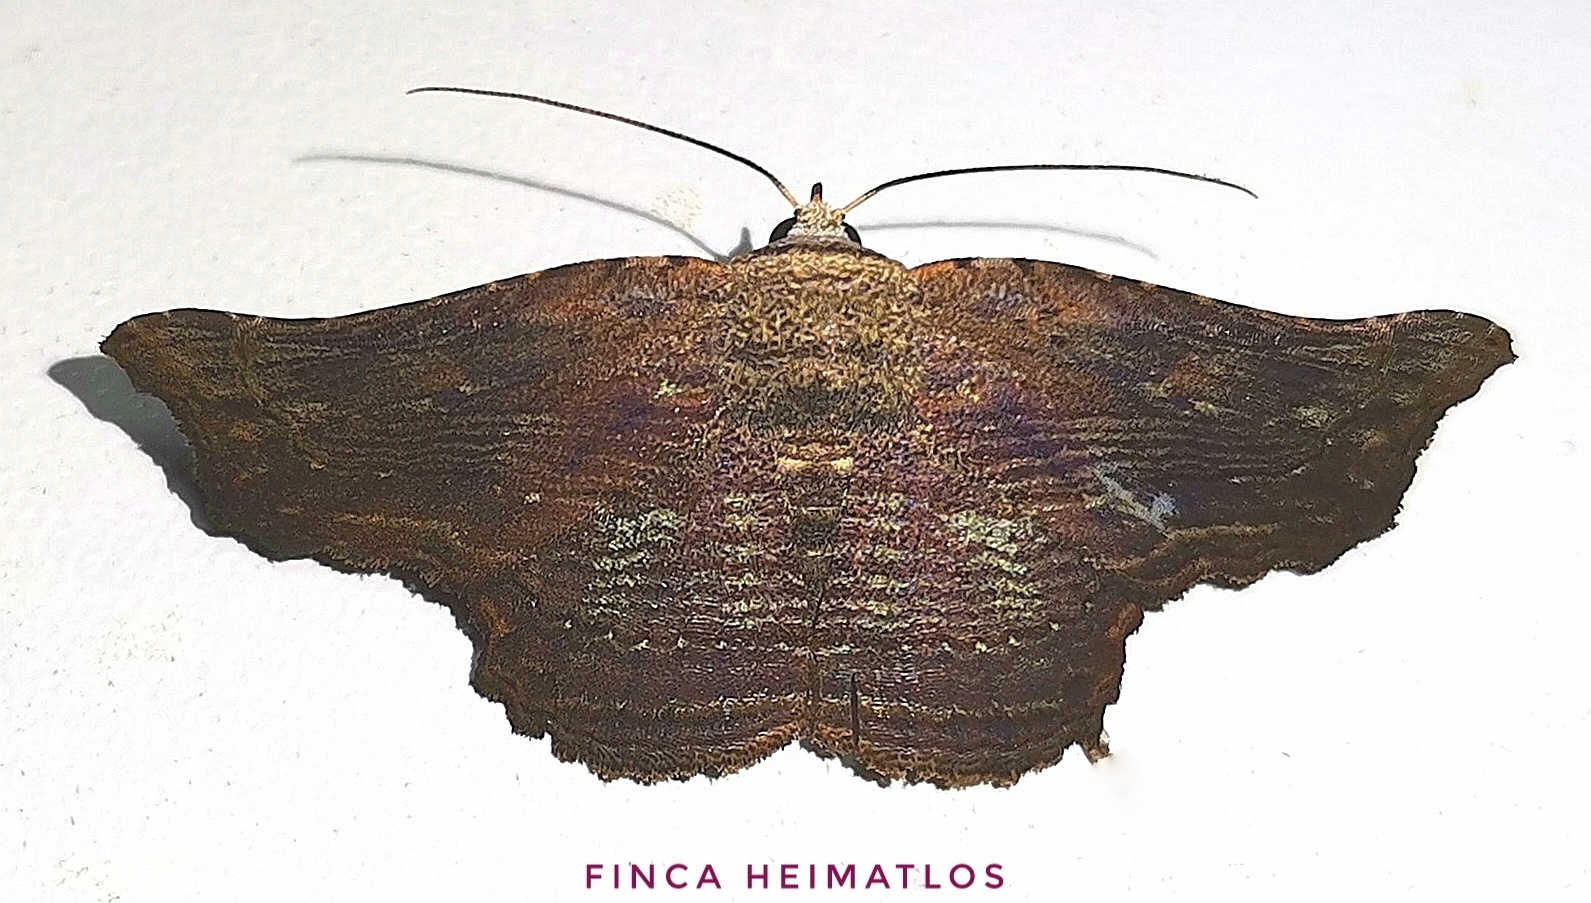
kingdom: Animalia
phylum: Arthropoda
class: Insecta
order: Lepidoptera
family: Erebidae
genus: Tyrissa
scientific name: Tyrissa perstrigata
